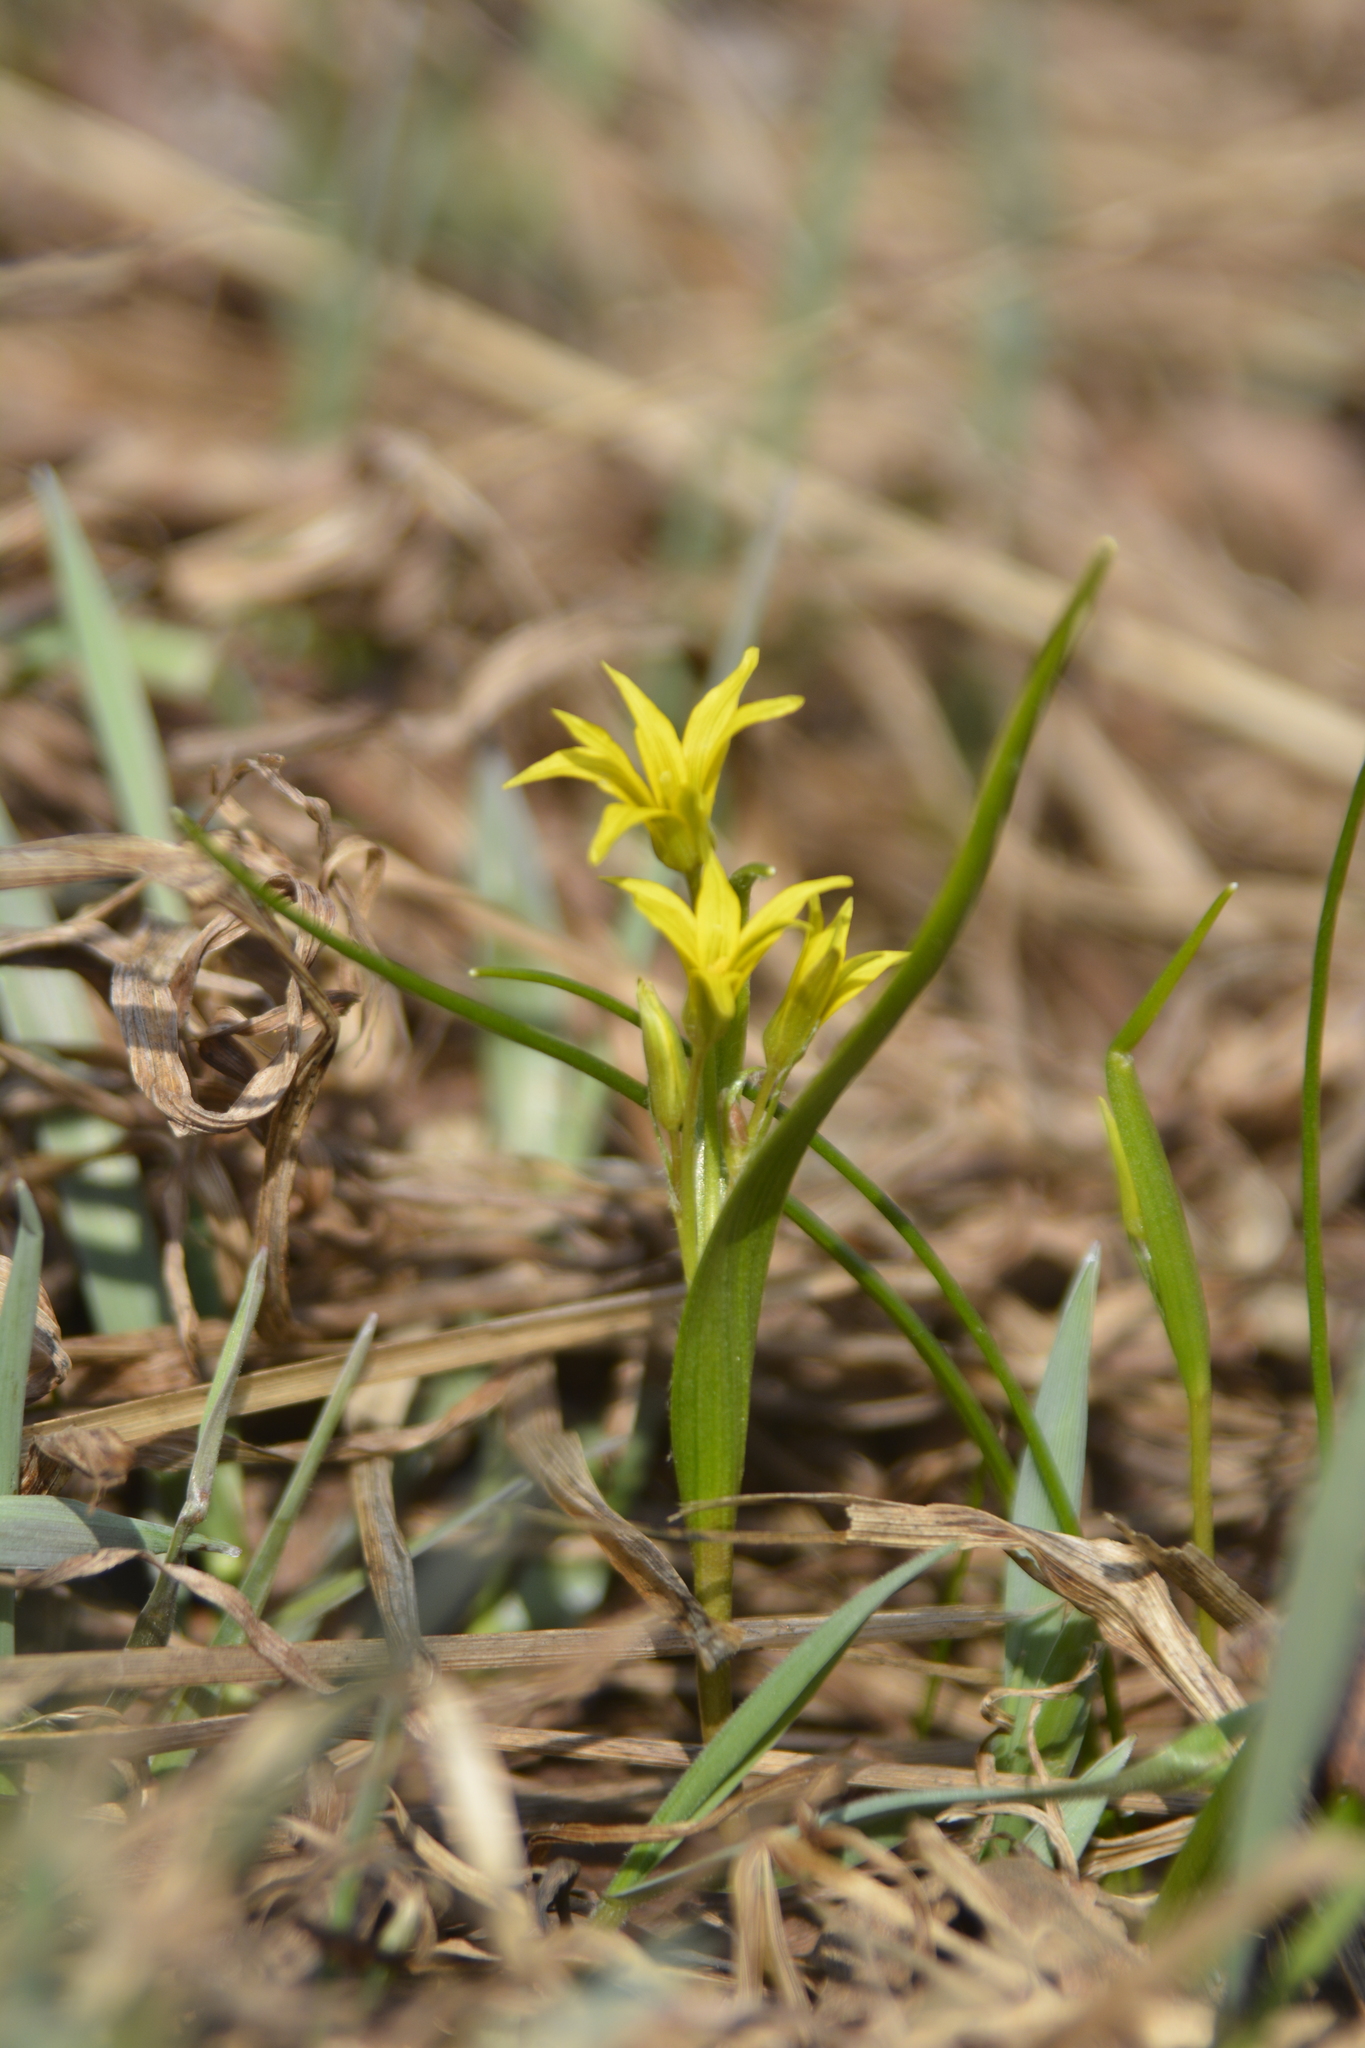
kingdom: Plantae
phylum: Tracheophyta
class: Liliopsida
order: Liliales
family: Liliaceae
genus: Gagea
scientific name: Gagea minima
